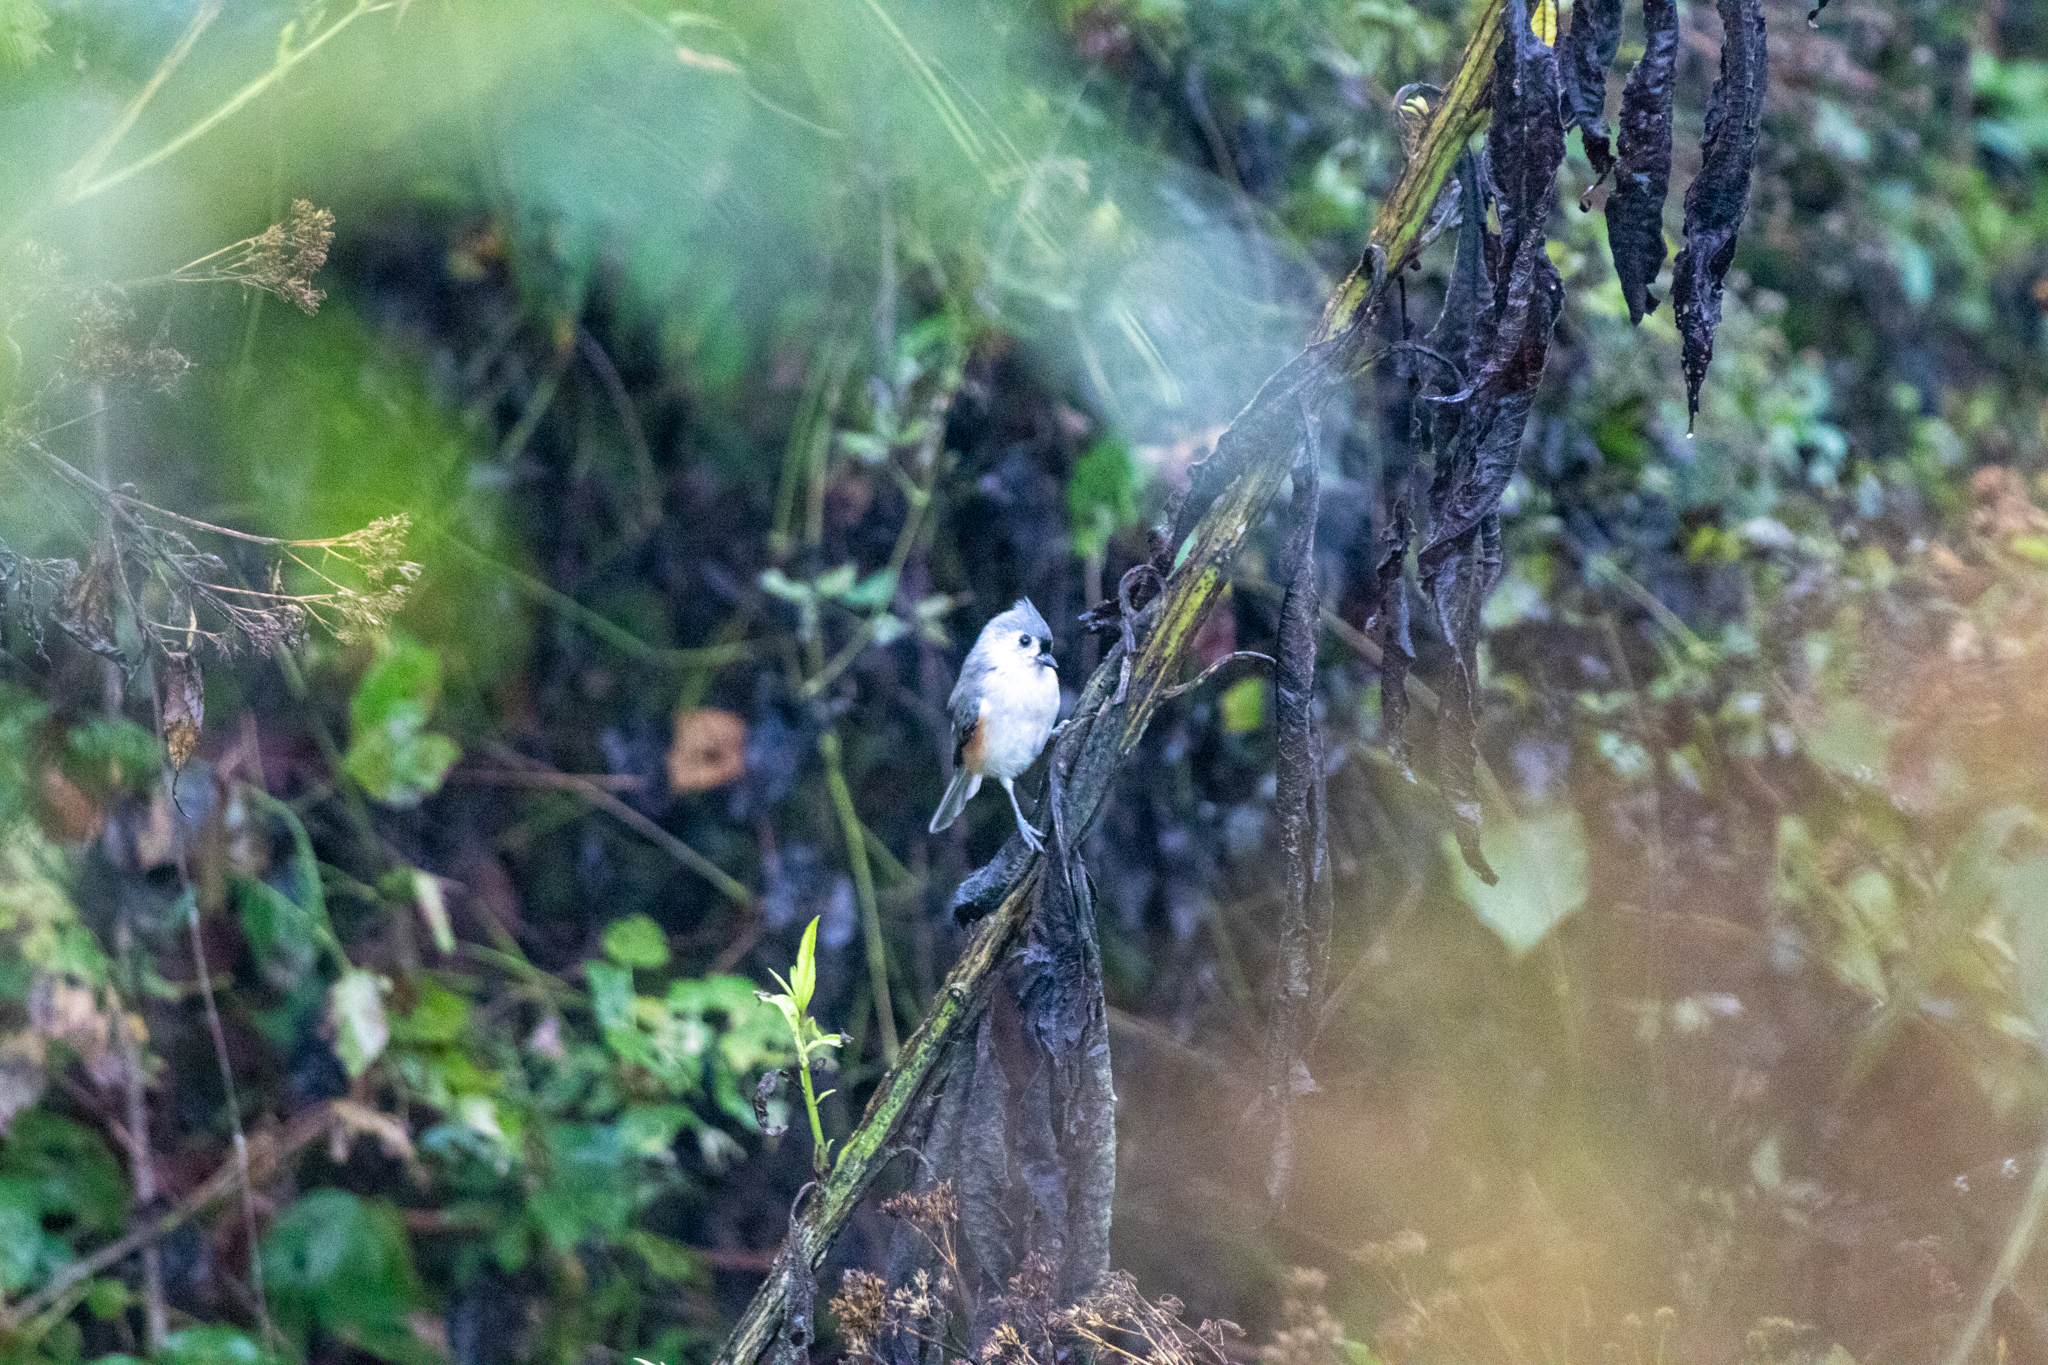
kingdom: Animalia
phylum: Chordata
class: Aves
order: Passeriformes
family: Paridae
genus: Baeolophus
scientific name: Baeolophus bicolor
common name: Tufted titmouse
